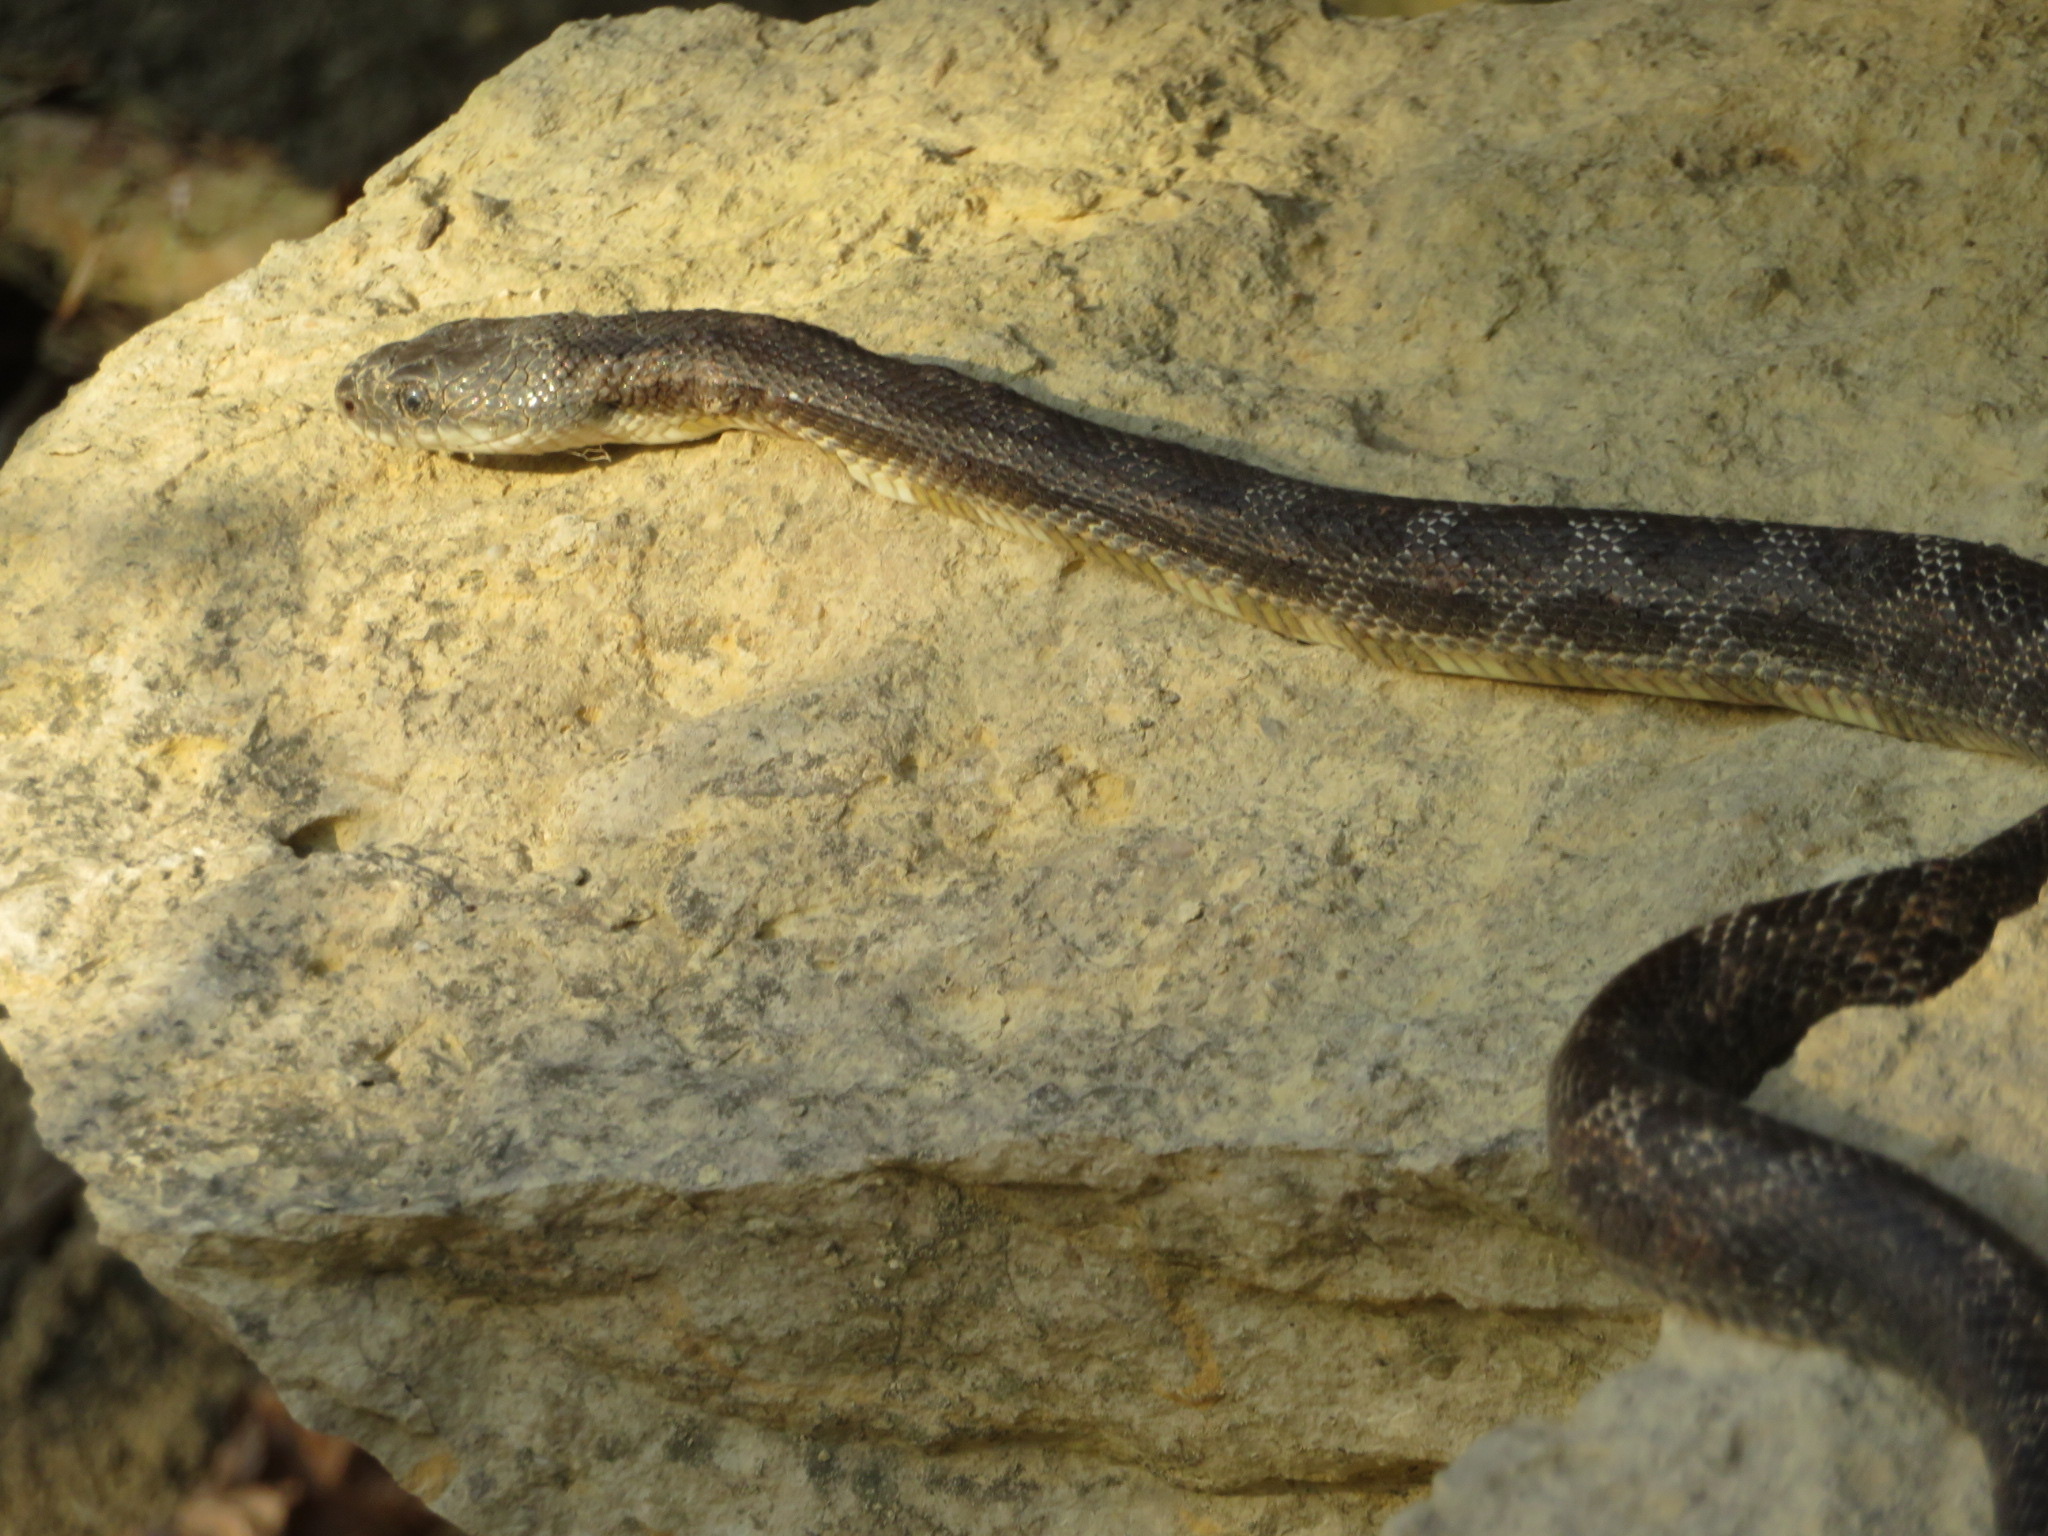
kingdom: Animalia
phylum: Chordata
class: Squamata
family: Colubridae
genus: Pantherophis
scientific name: Pantherophis obsoletus
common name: Black rat snake
